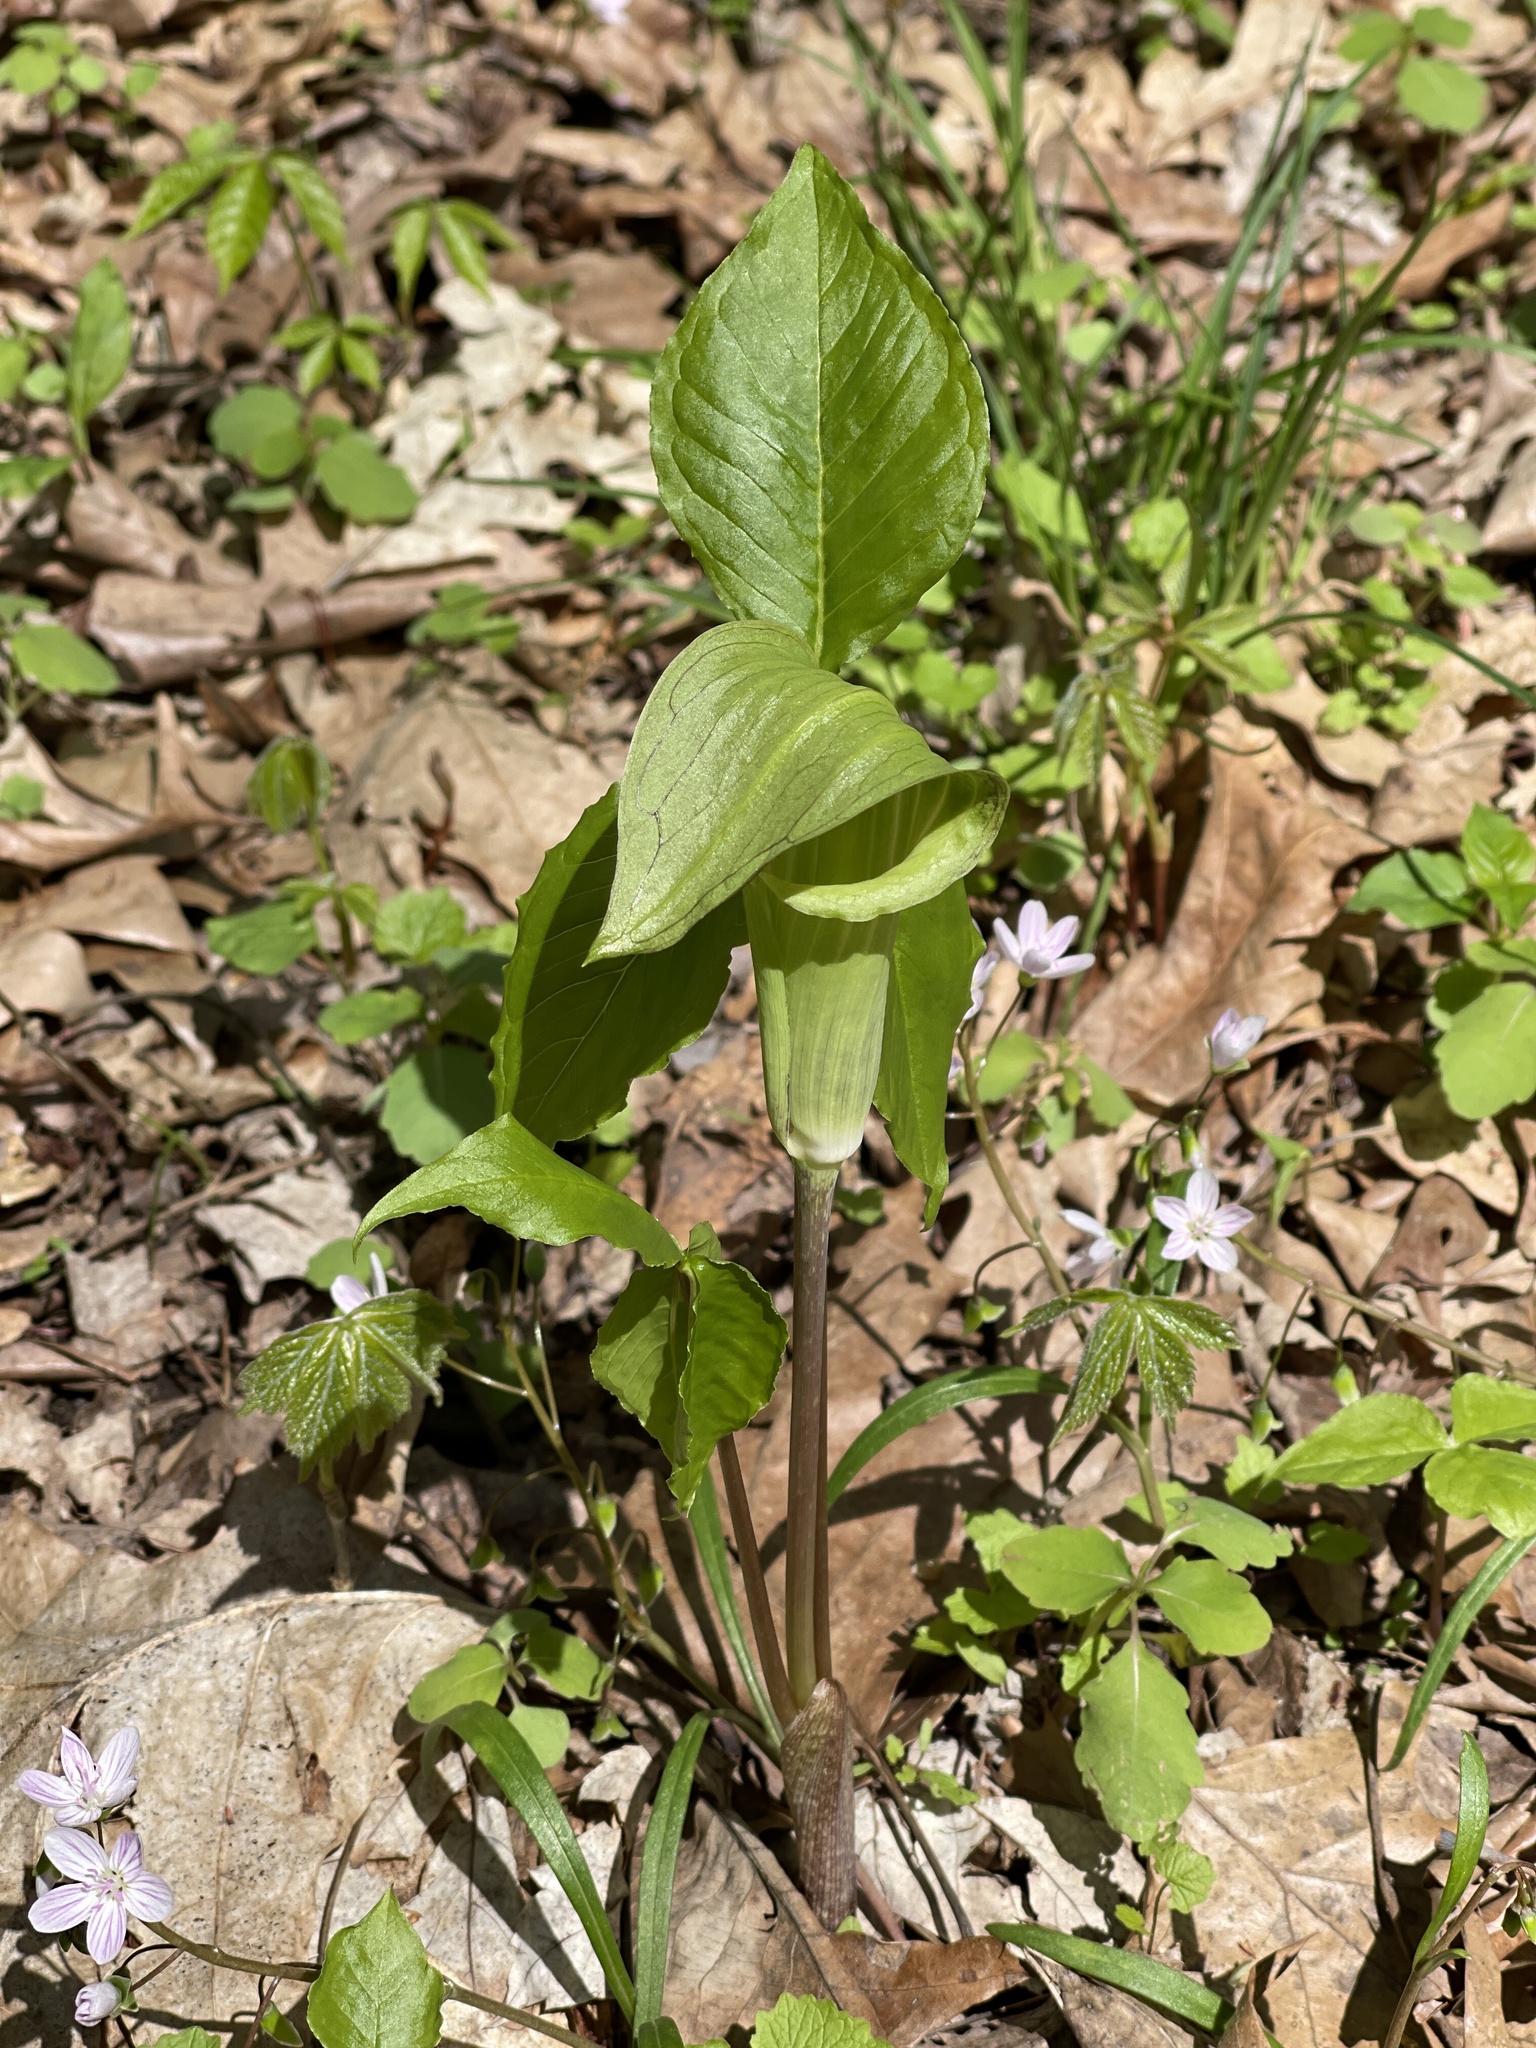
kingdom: Plantae
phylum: Tracheophyta
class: Liliopsida
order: Alismatales
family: Araceae
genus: Arisaema
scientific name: Arisaema triphyllum
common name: Jack-in-the-pulpit
